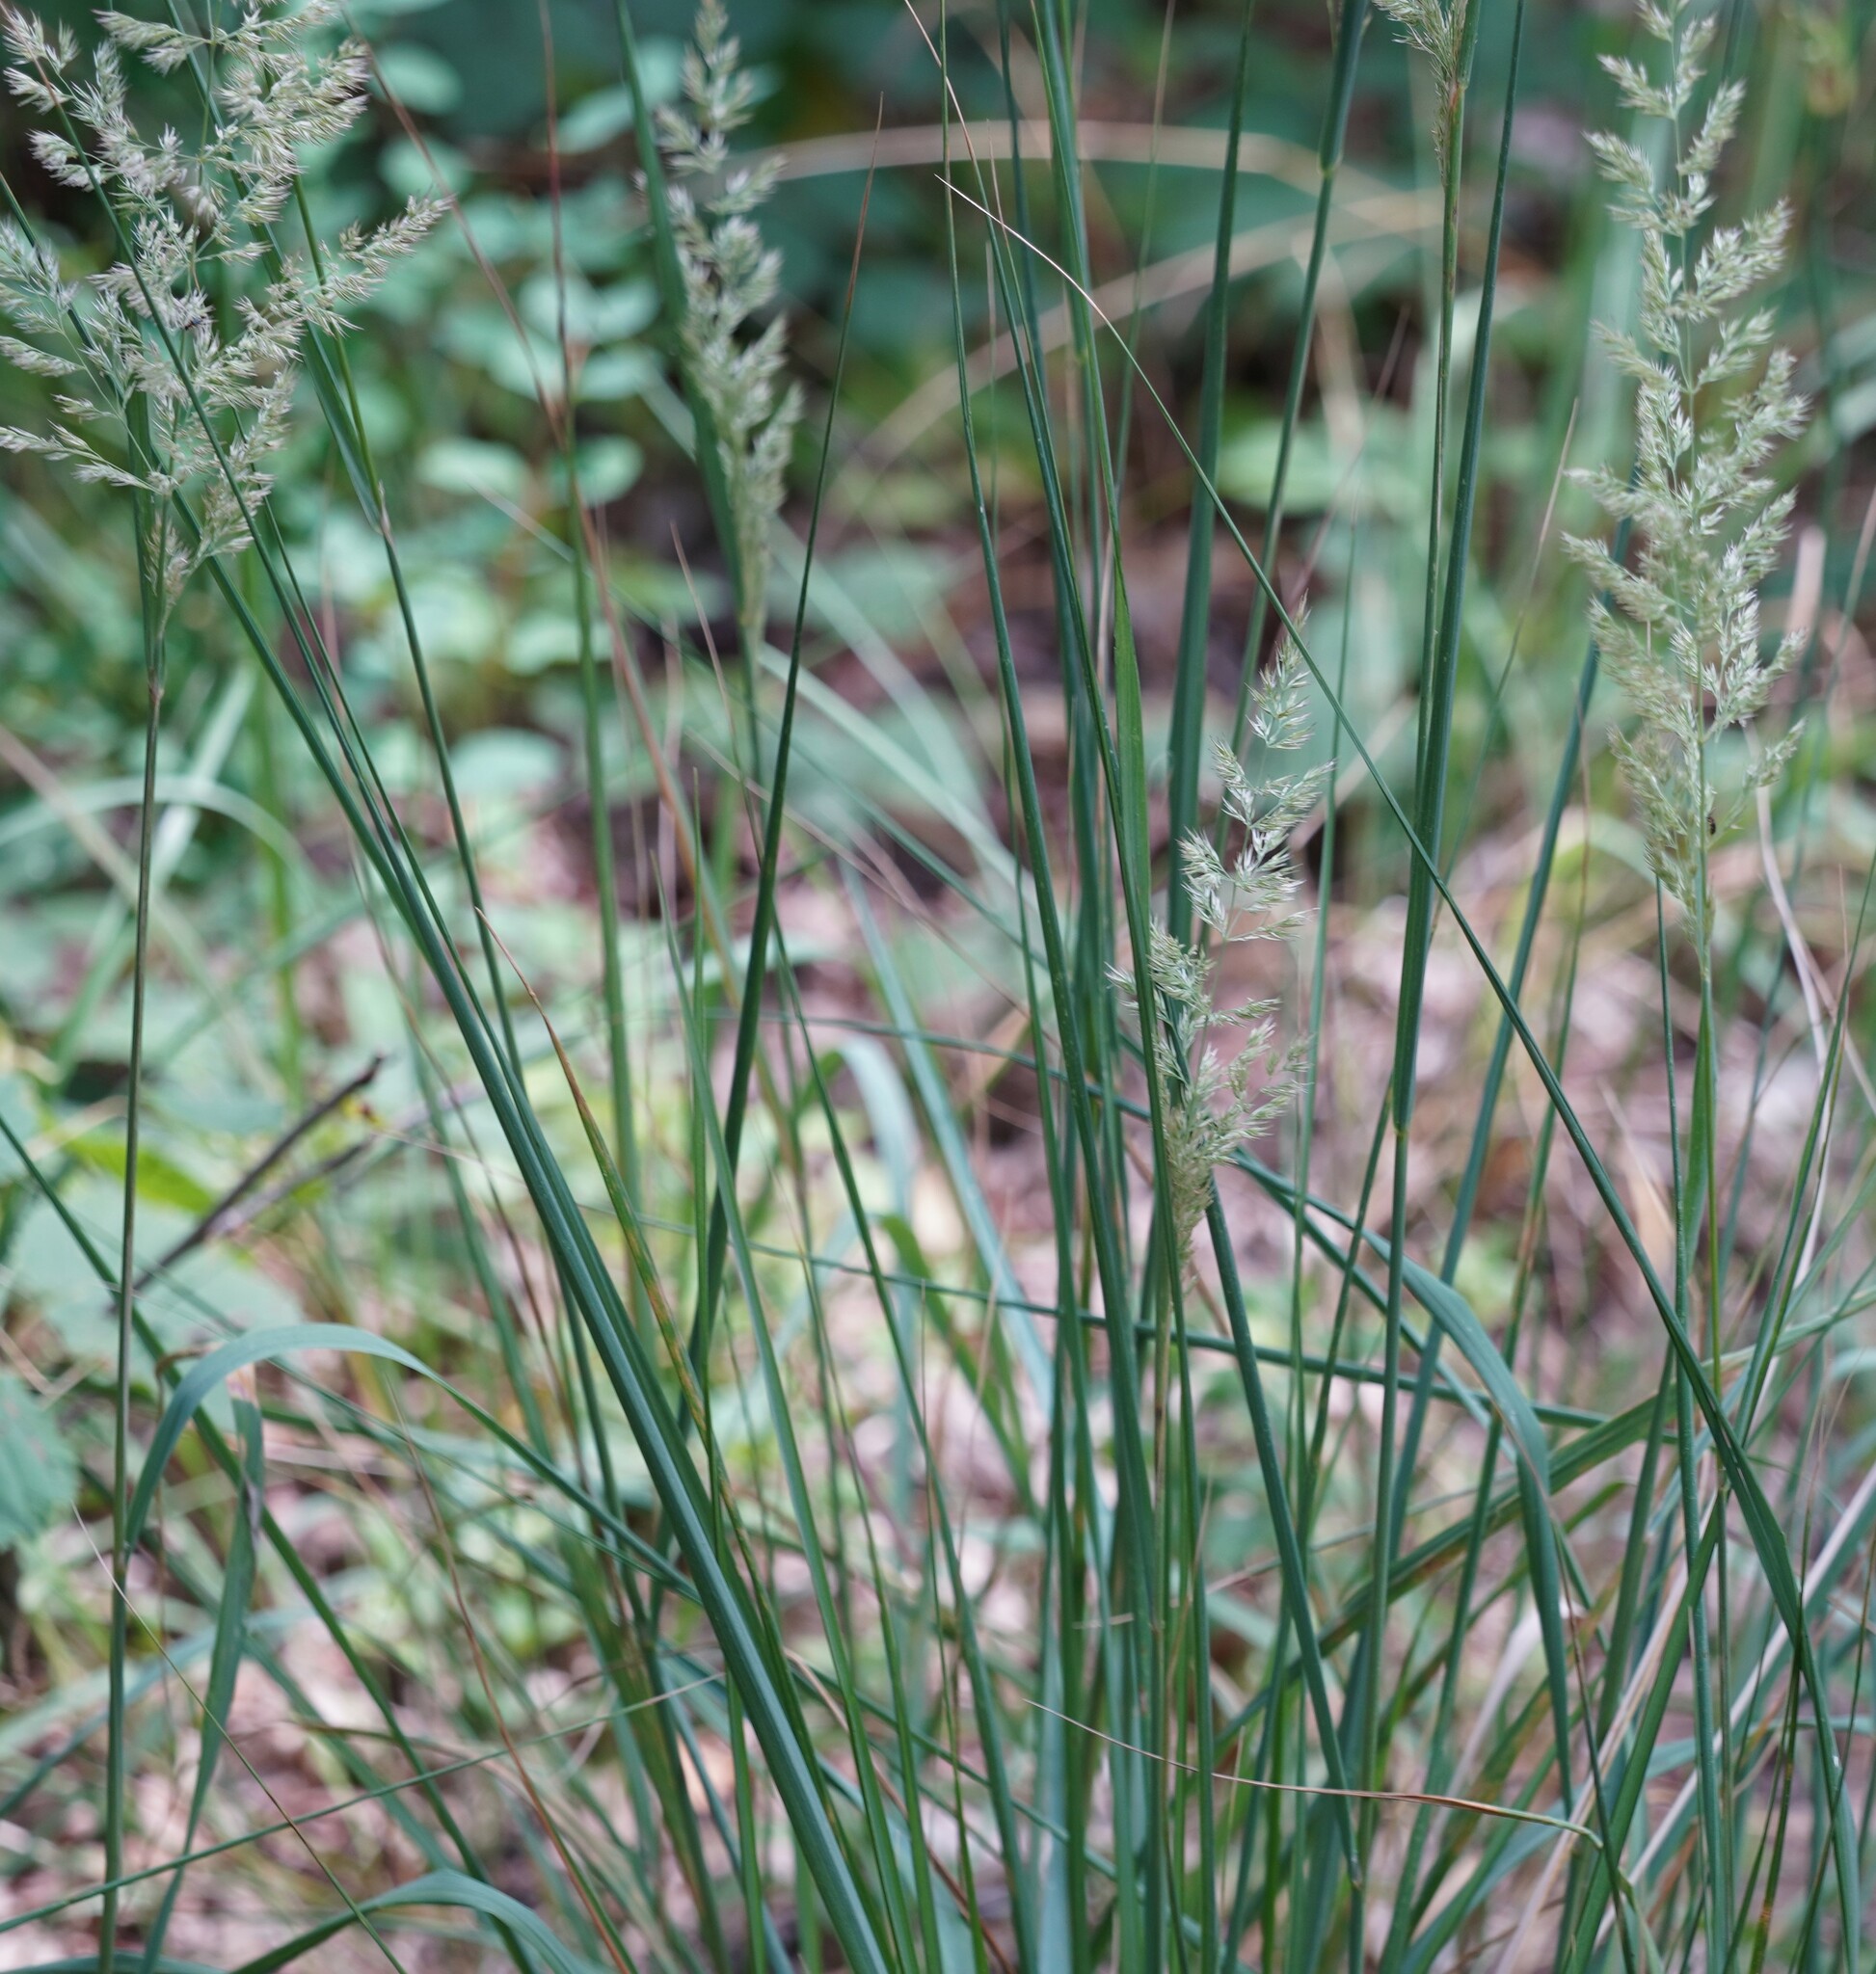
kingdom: Plantae
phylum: Tracheophyta
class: Liliopsida
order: Poales
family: Poaceae
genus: Calamagrostis
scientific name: Calamagrostis epigejos
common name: Wood small-reed
